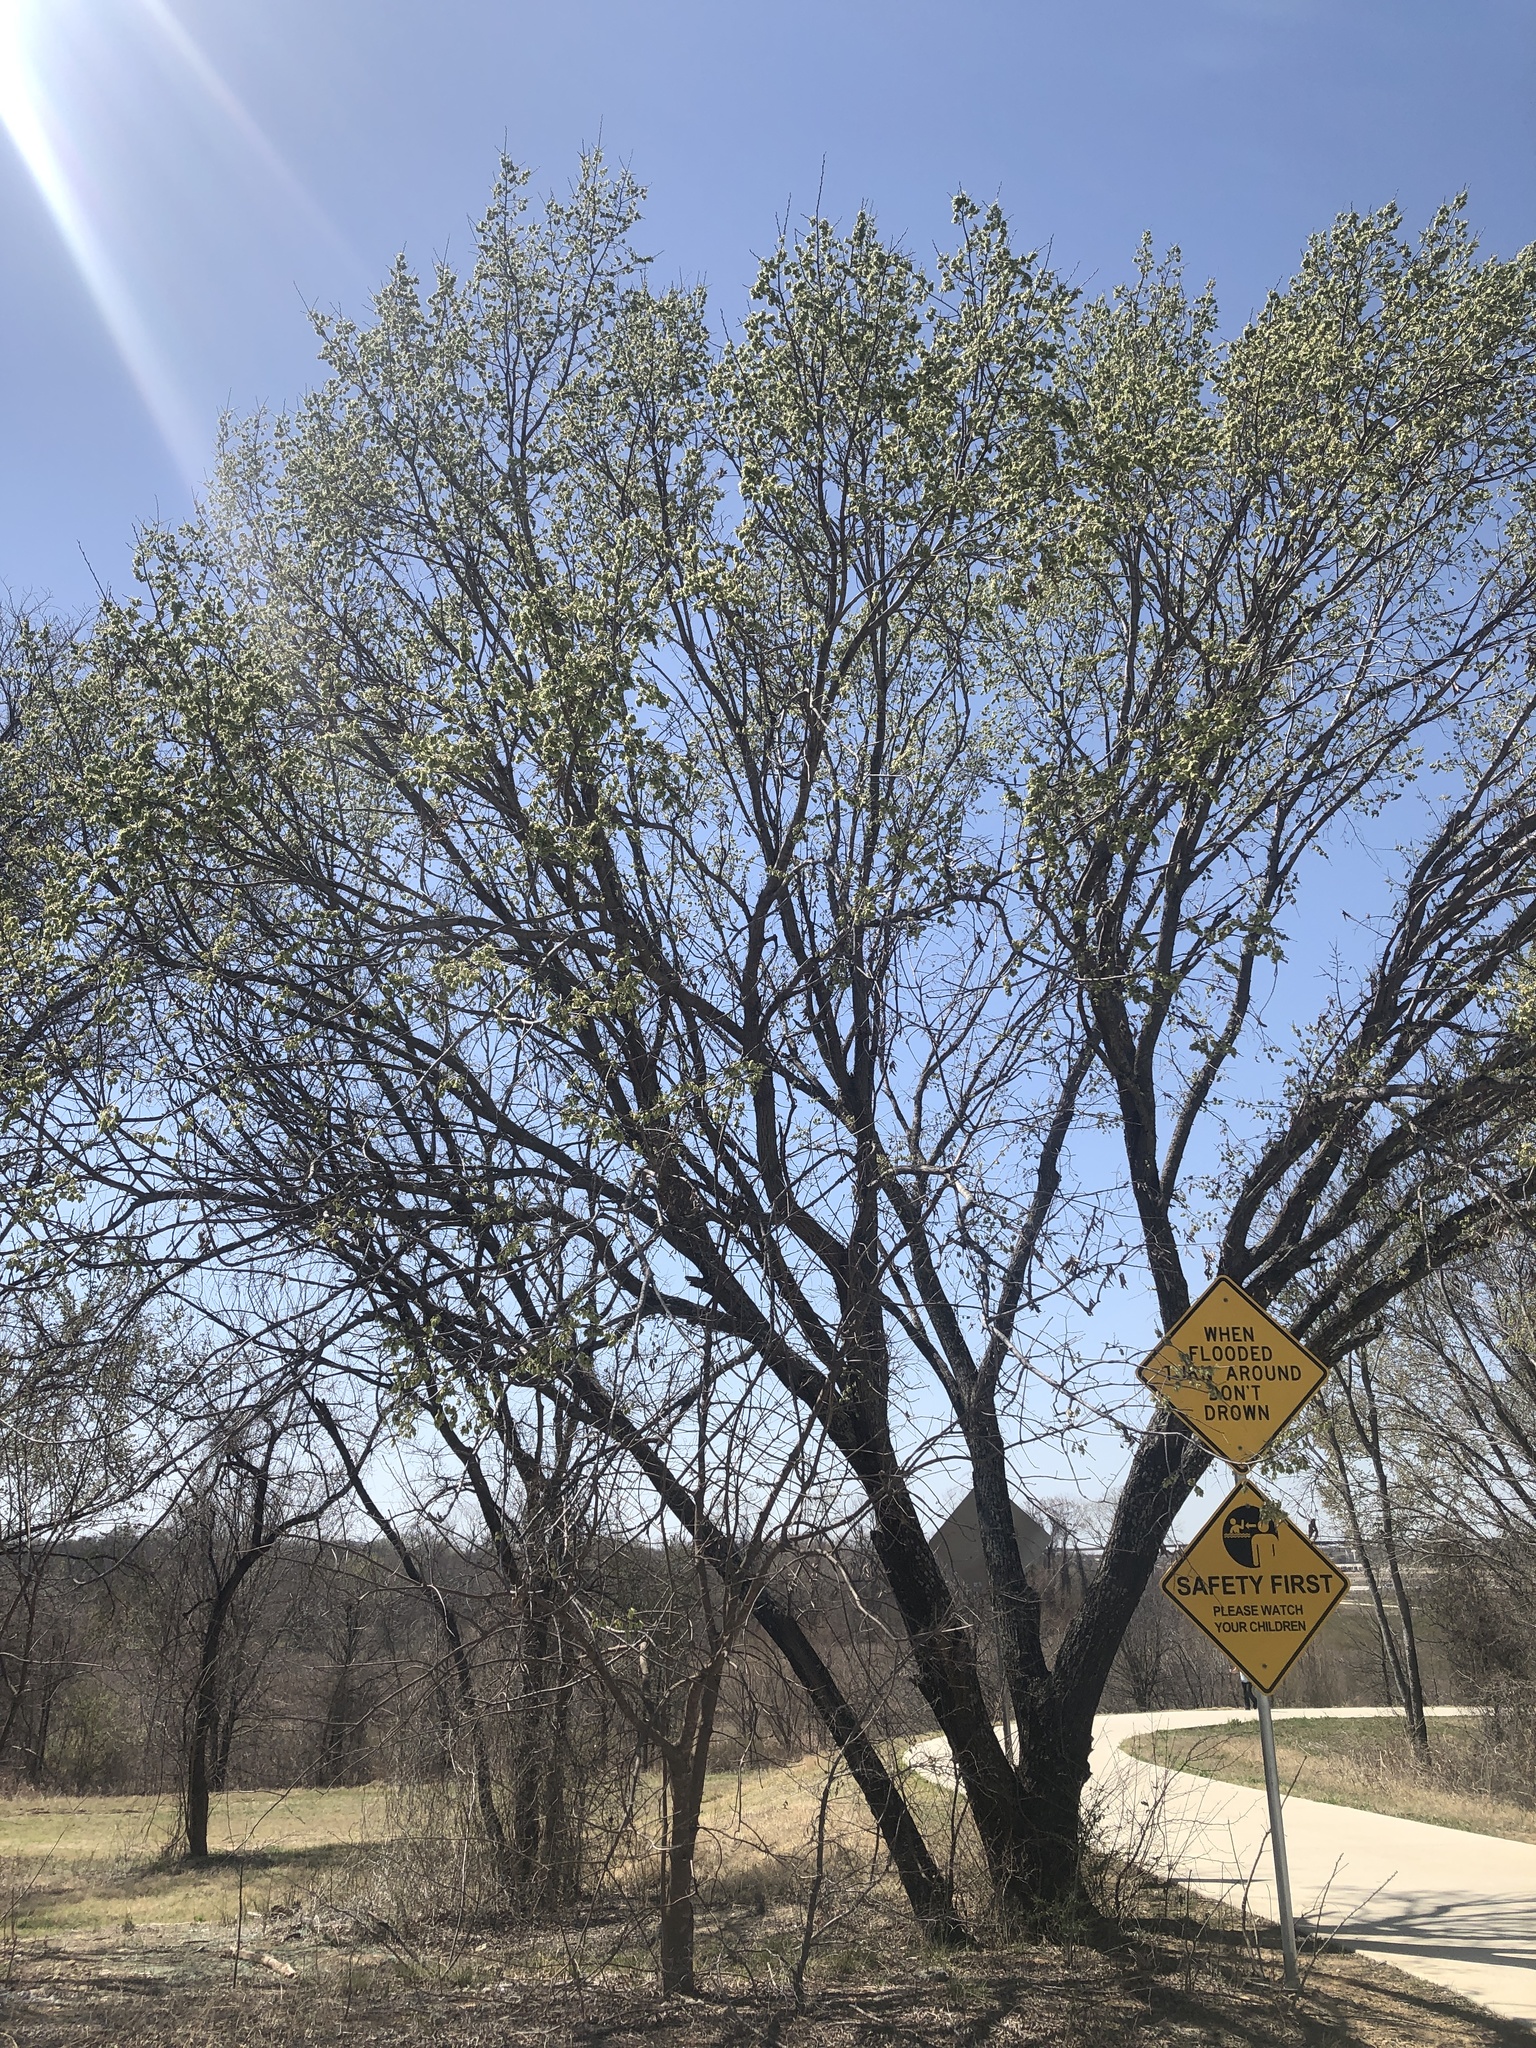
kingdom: Plantae
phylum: Tracheophyta
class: Magnoliopsida
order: Rosales
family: Ulmaceae
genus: Ulmus
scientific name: Ulmus americana
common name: American elm
